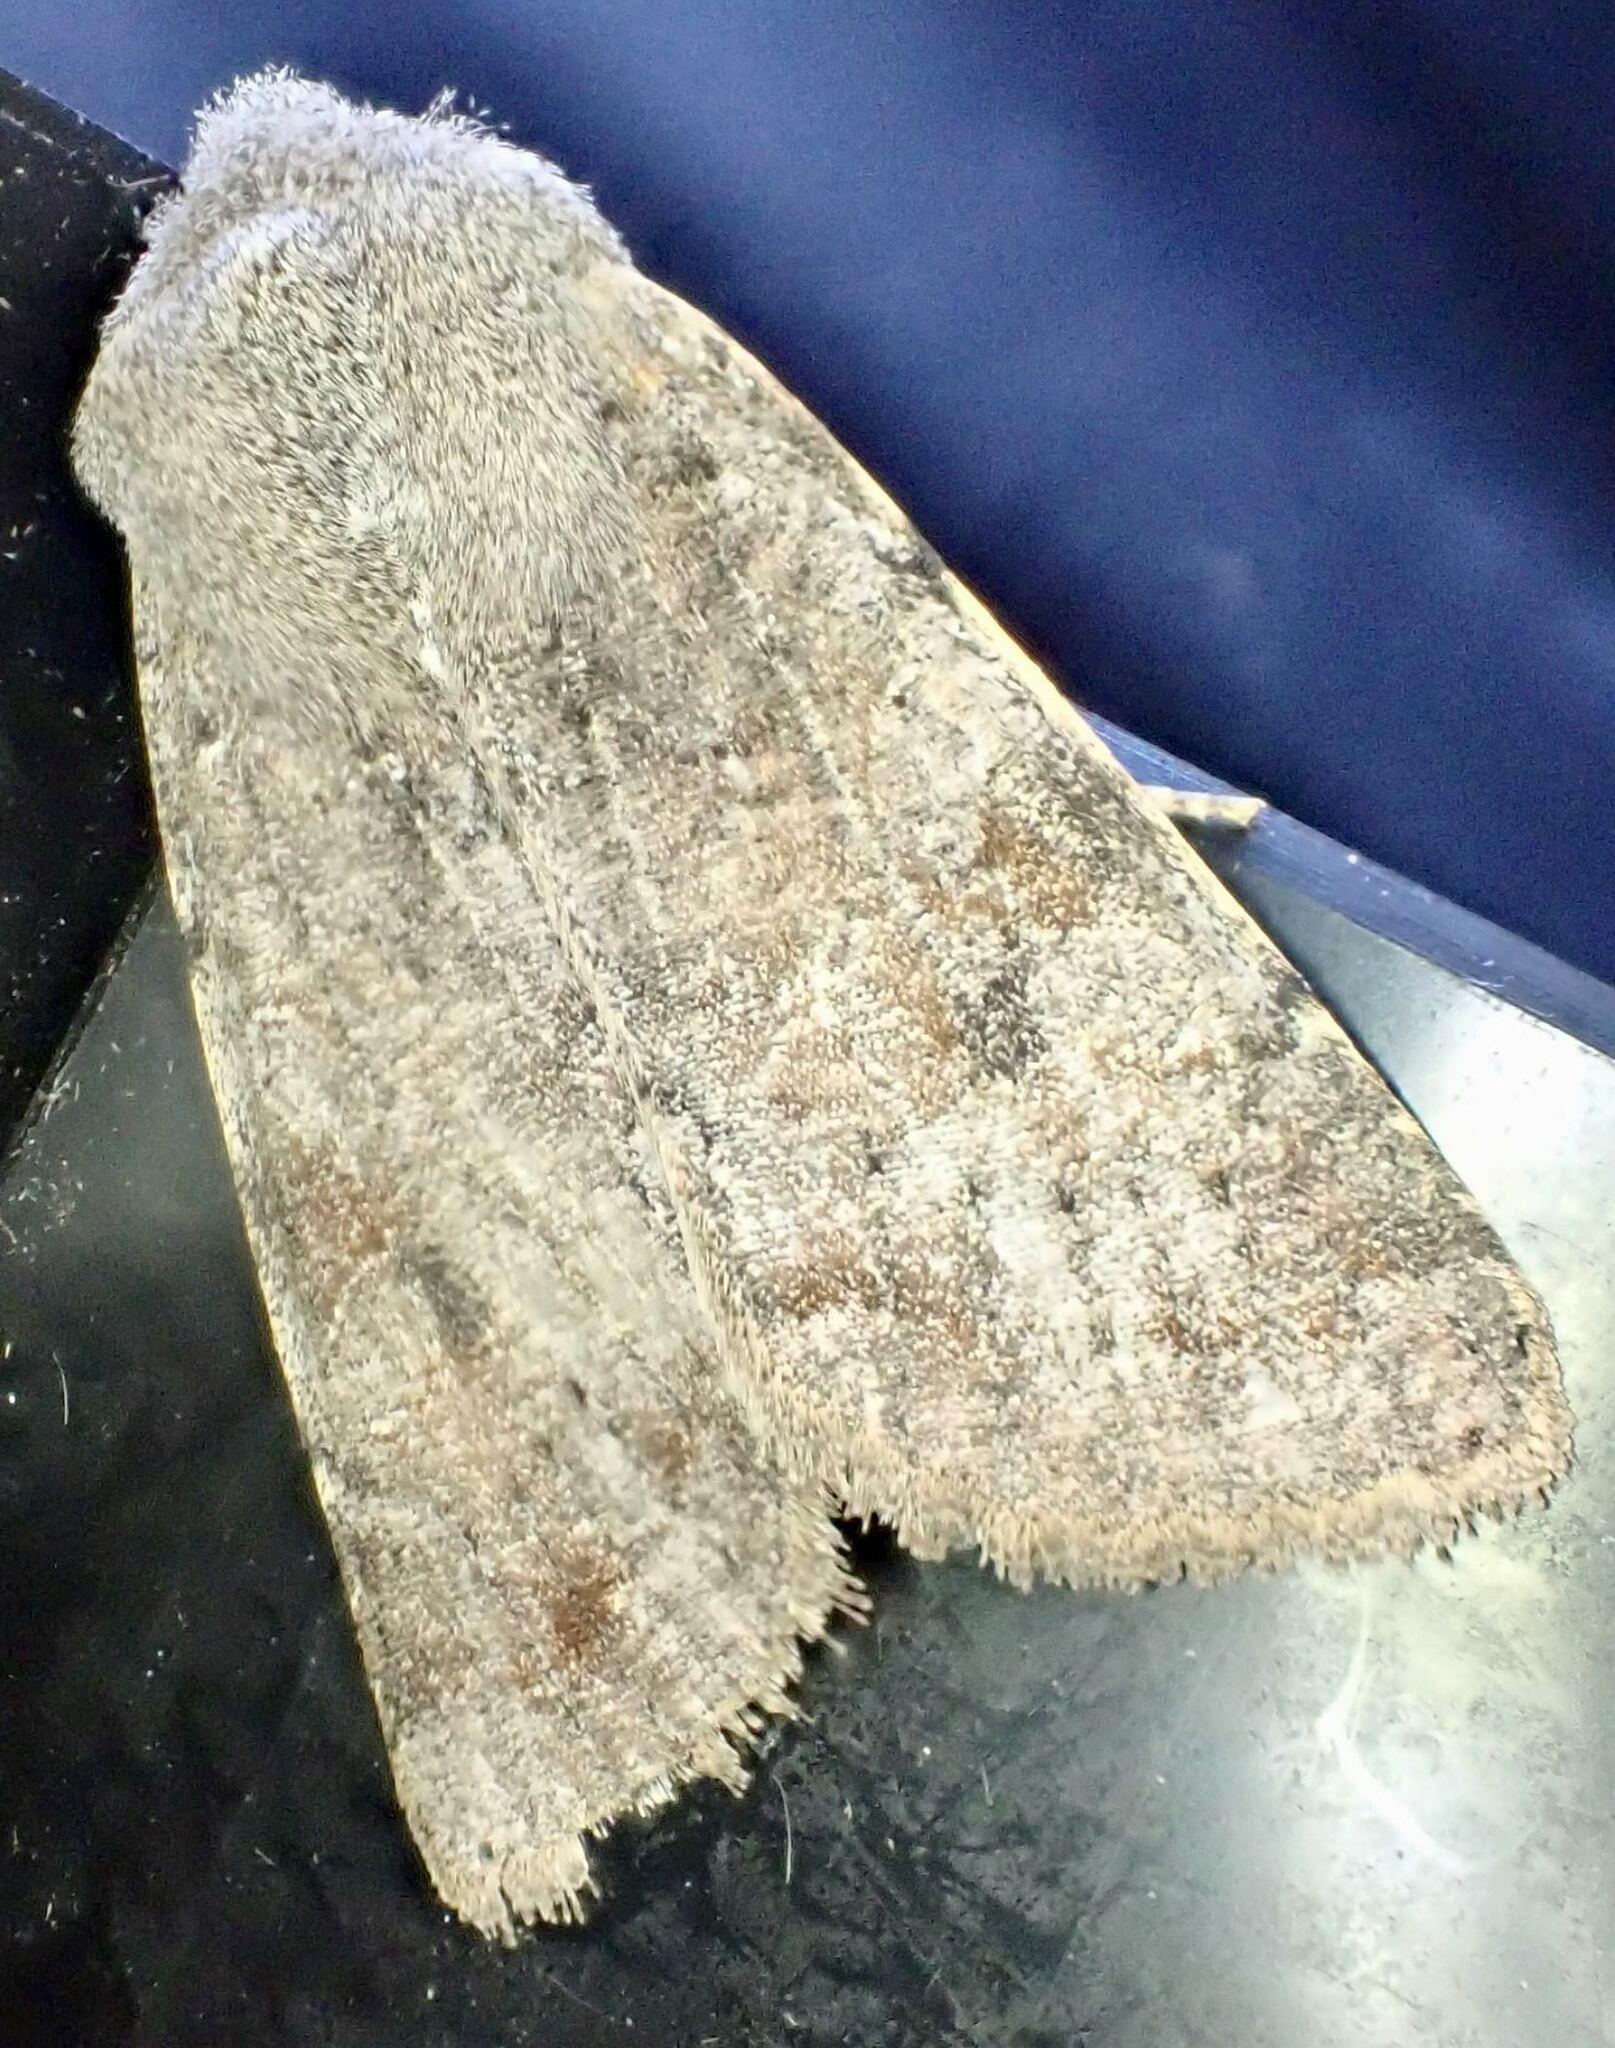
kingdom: Animalia
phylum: Arthropoda
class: Insecta
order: Lepidoptera
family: Noctuidae
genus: Orthosia
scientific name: Orthosia incerta
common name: Clouded drab
